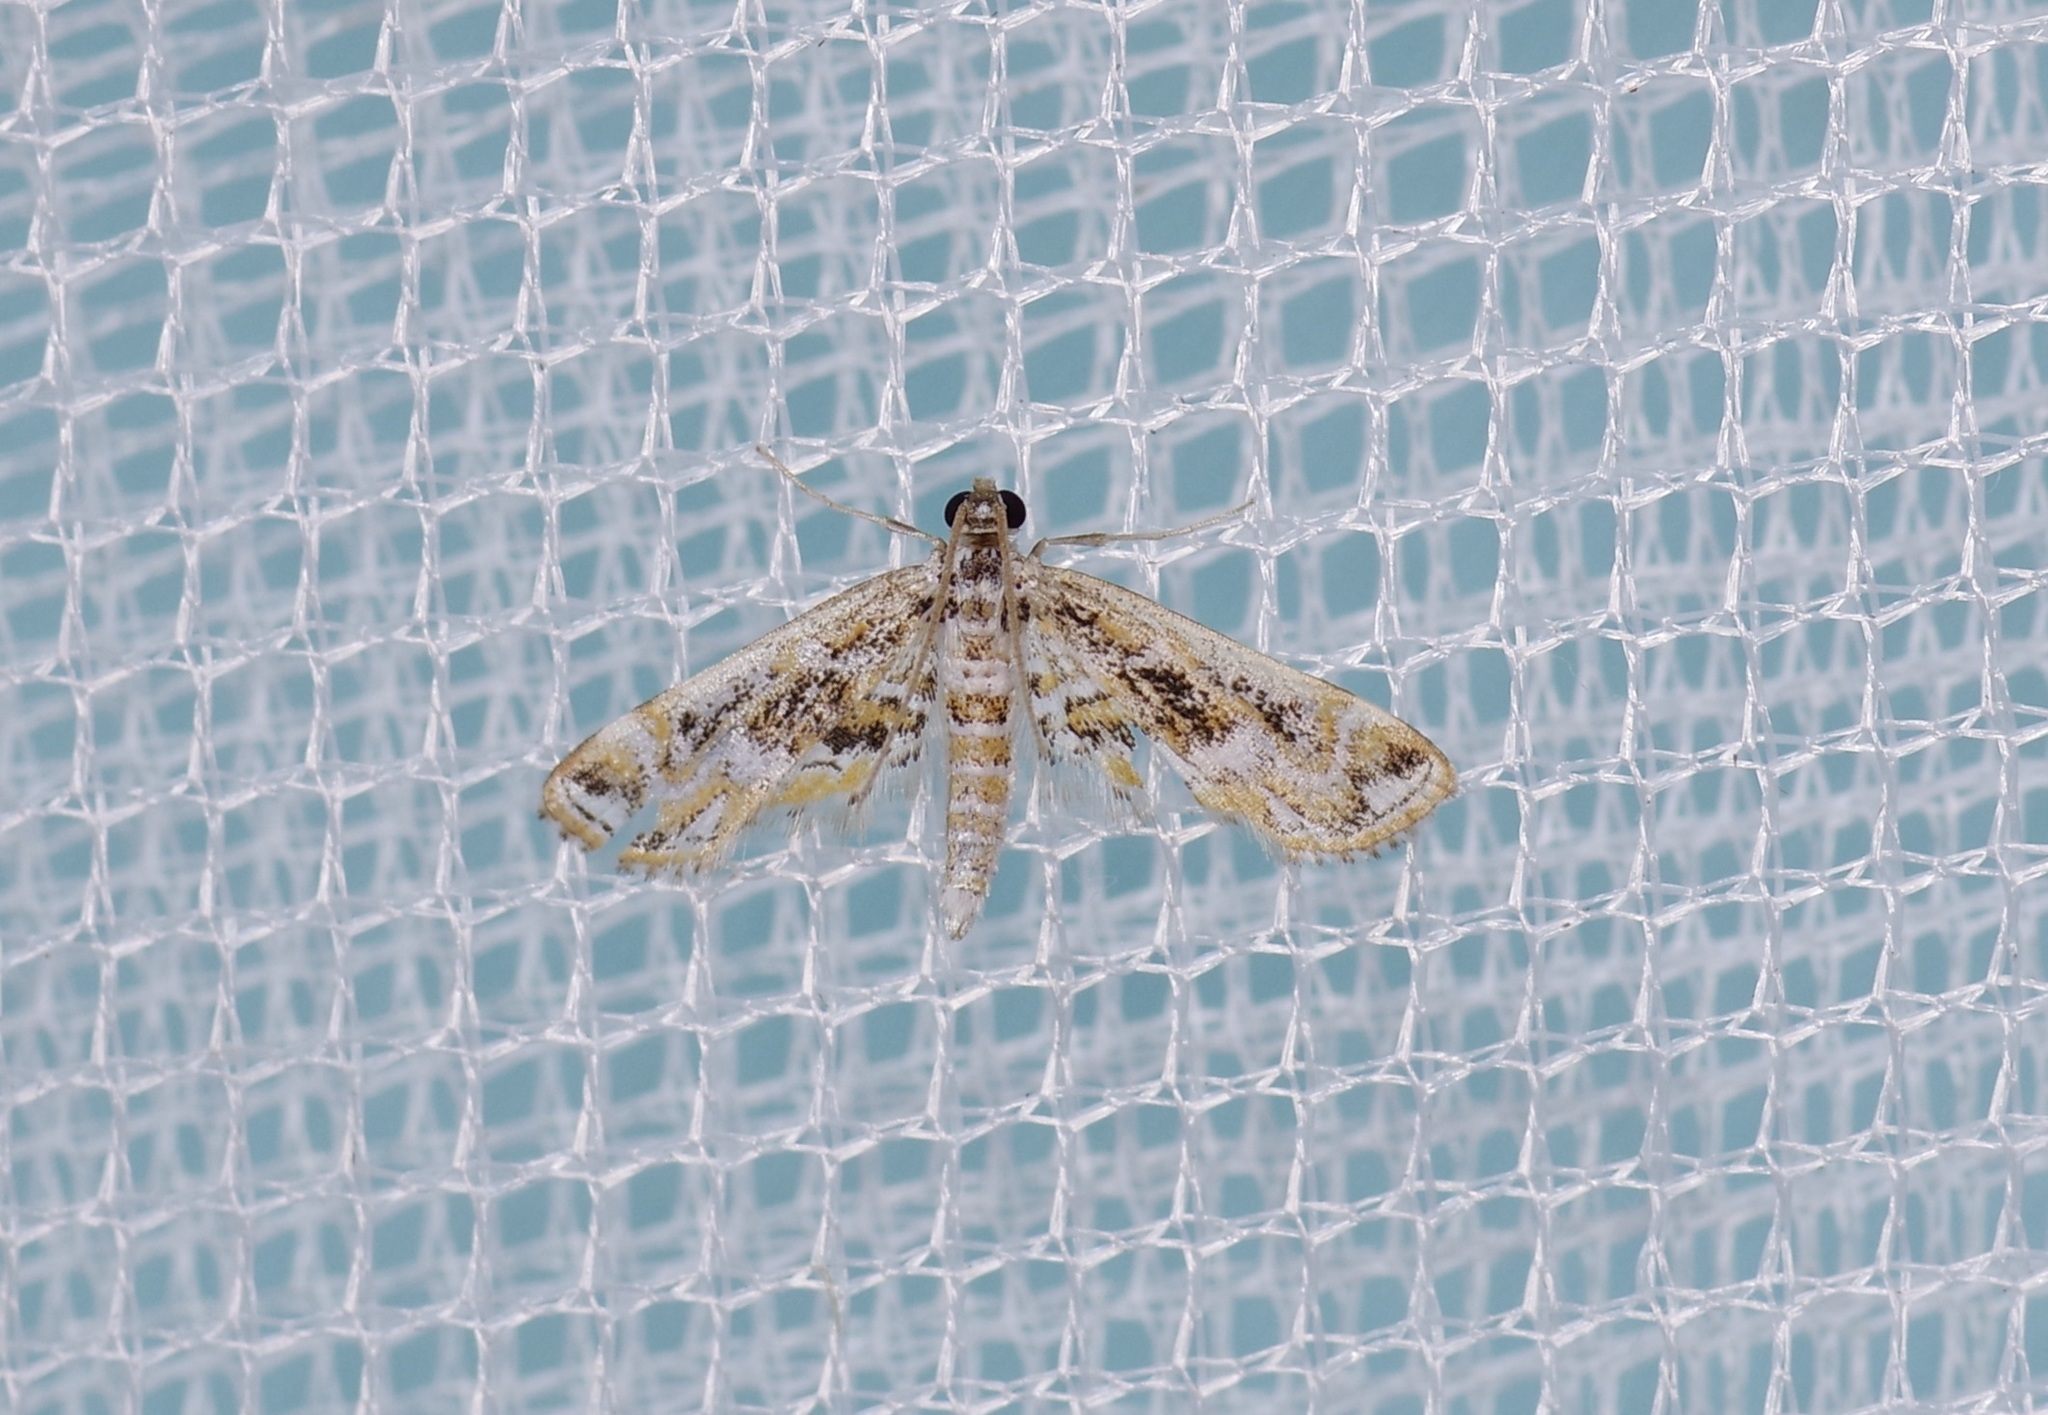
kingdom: Animalia
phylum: Arthropoda
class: Insecta
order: Lepidoptera
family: Crambidae
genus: Parapoynx
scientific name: Parapoynx diminutalis
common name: Hydrilla leafcutter
